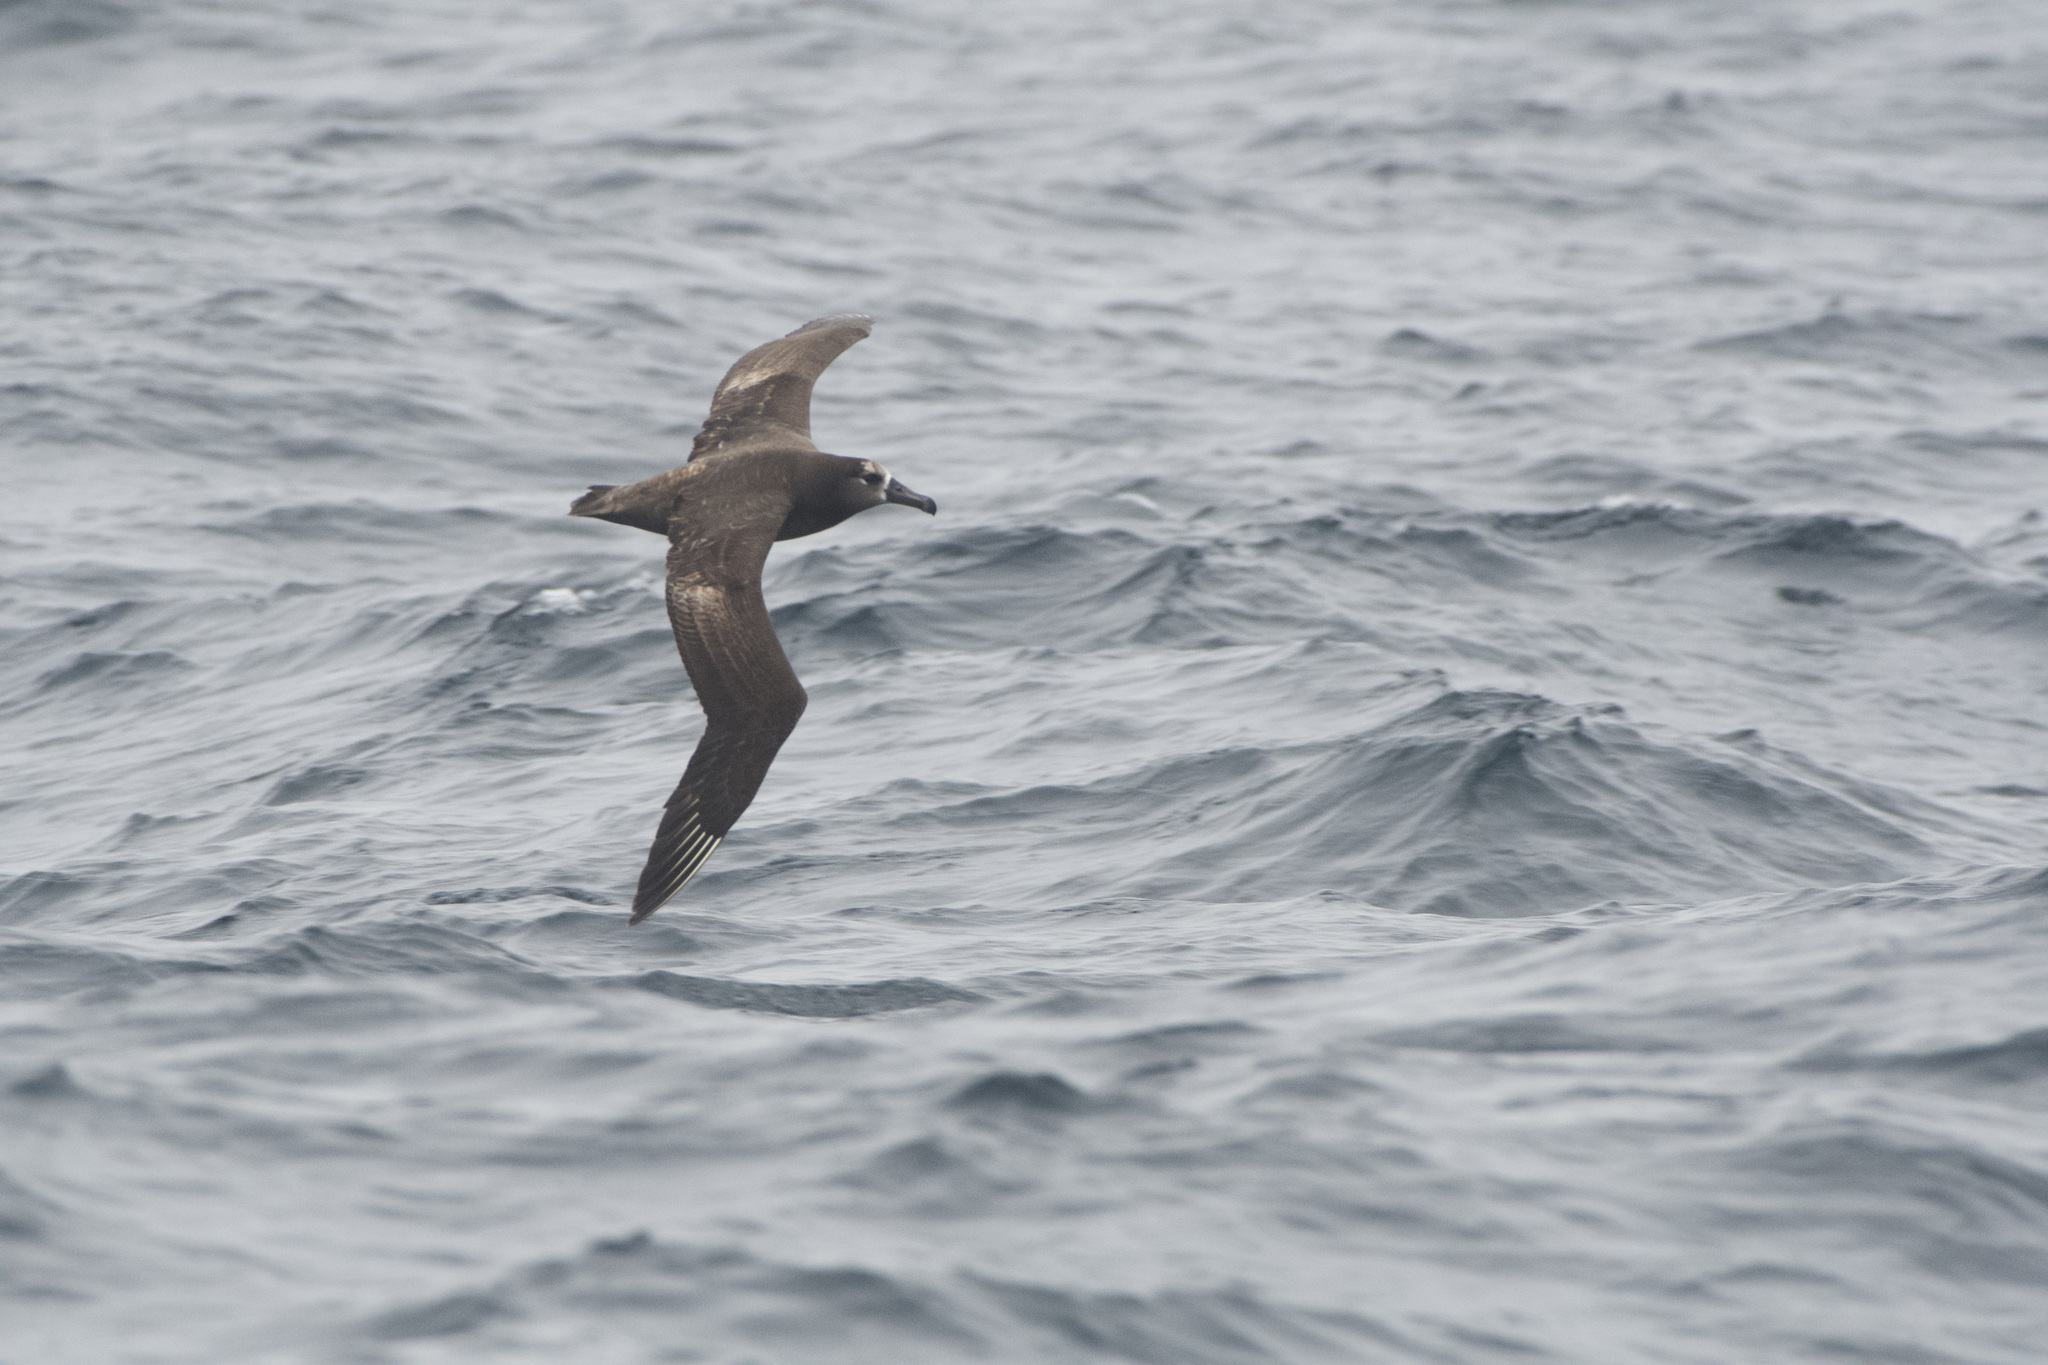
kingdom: Animalia
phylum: Chordata
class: Aves
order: Procellariiformes
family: Diomedeidae
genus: Phoebastria
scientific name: Phoebastria nigripes
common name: Black-footed albatross
